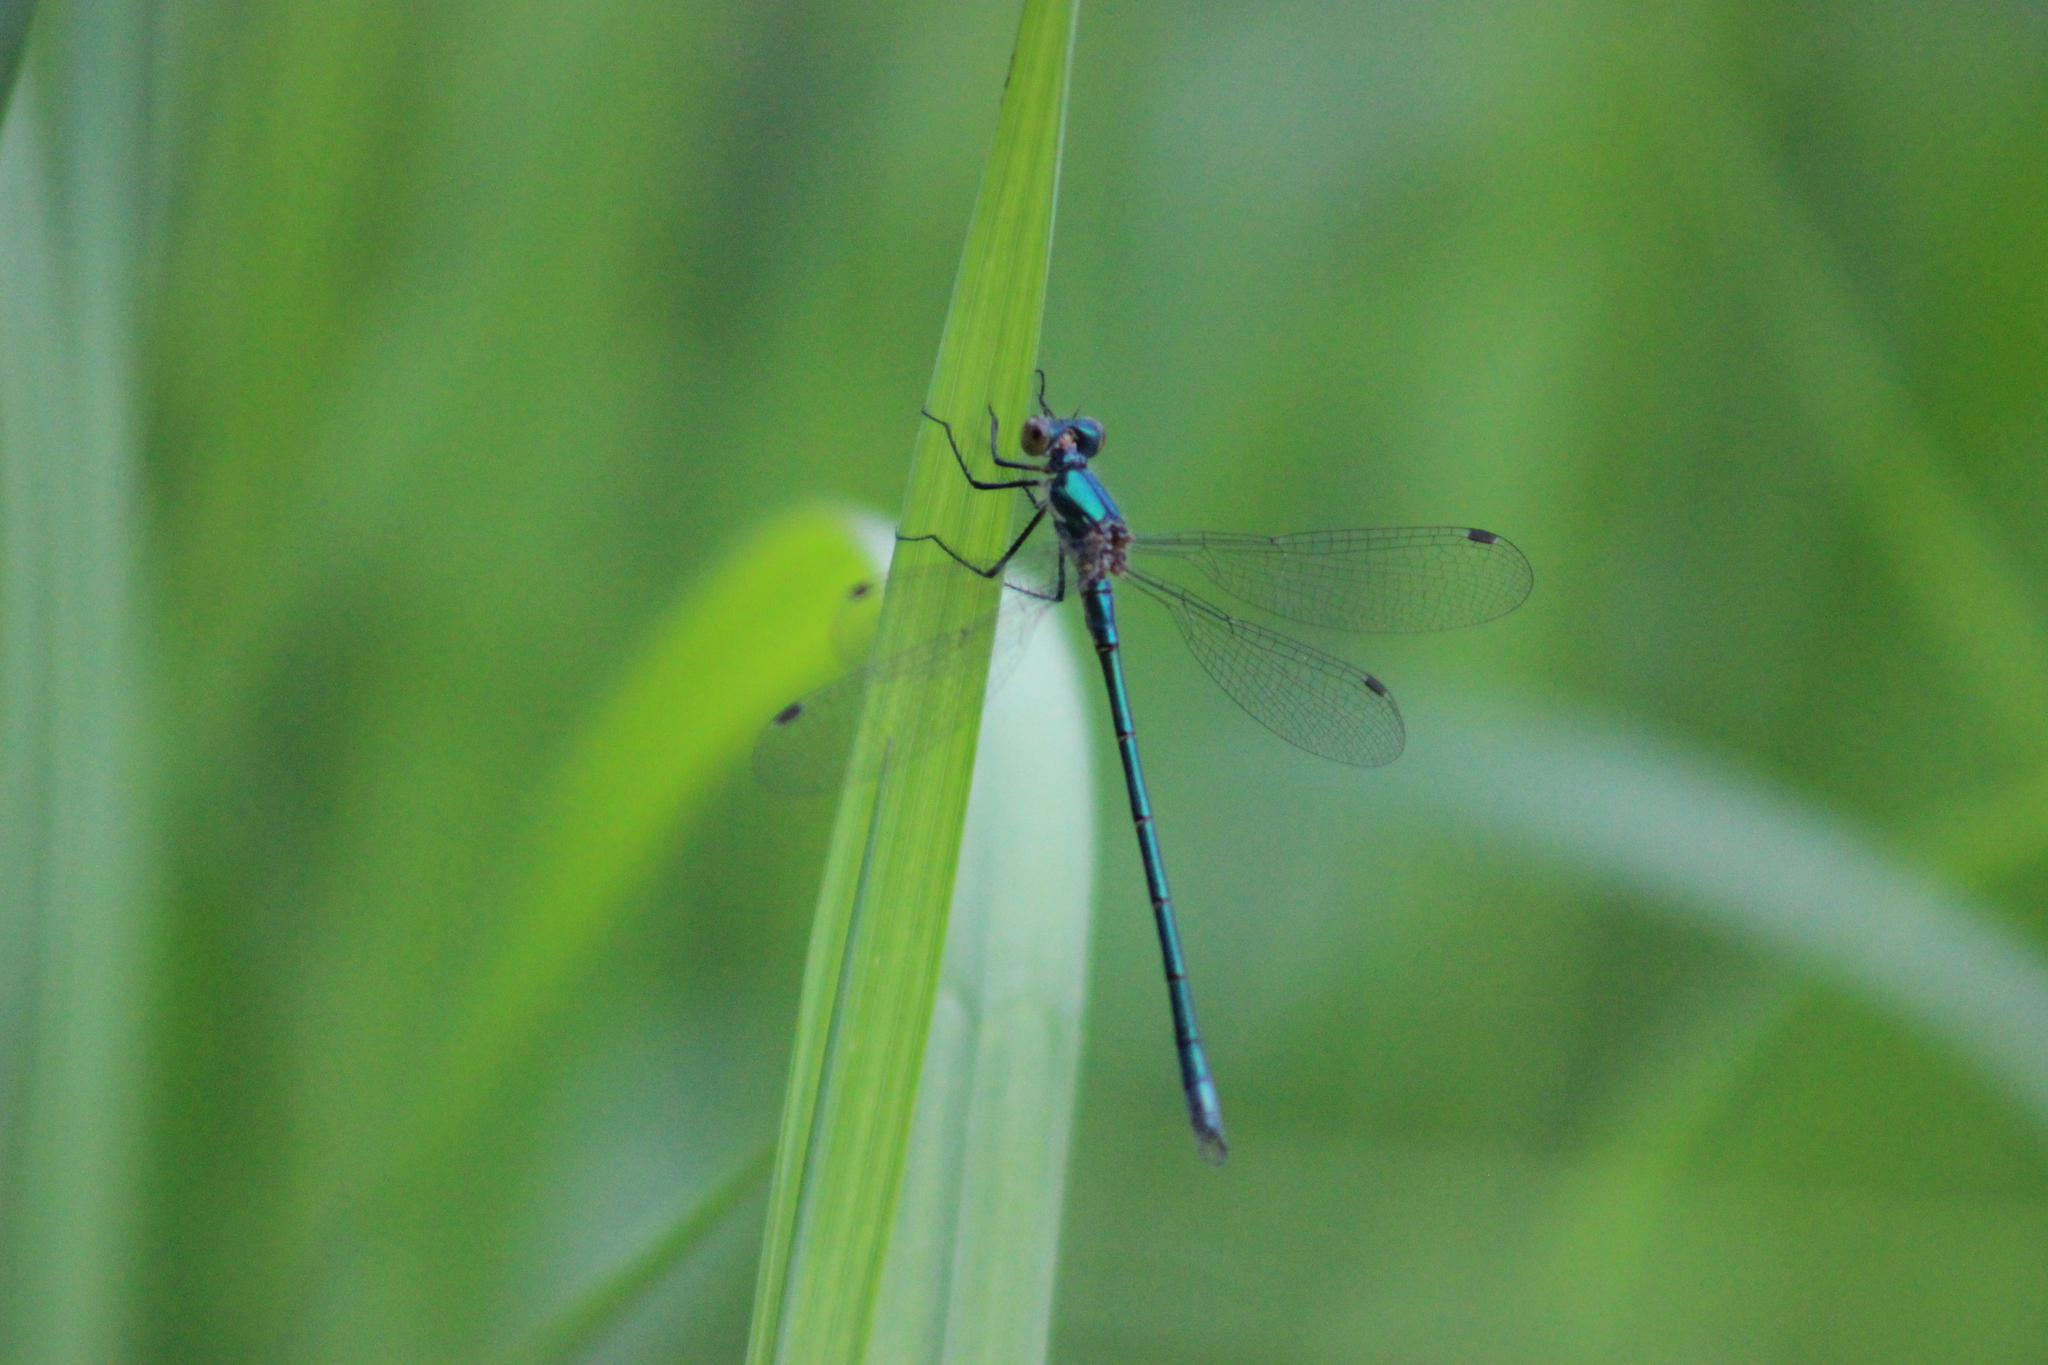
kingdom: Animalia
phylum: Arthropoda
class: Insecta
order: Odonata
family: Lestidae
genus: Lestes
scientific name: Lestes dryas
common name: Scarce emerald damselfly
